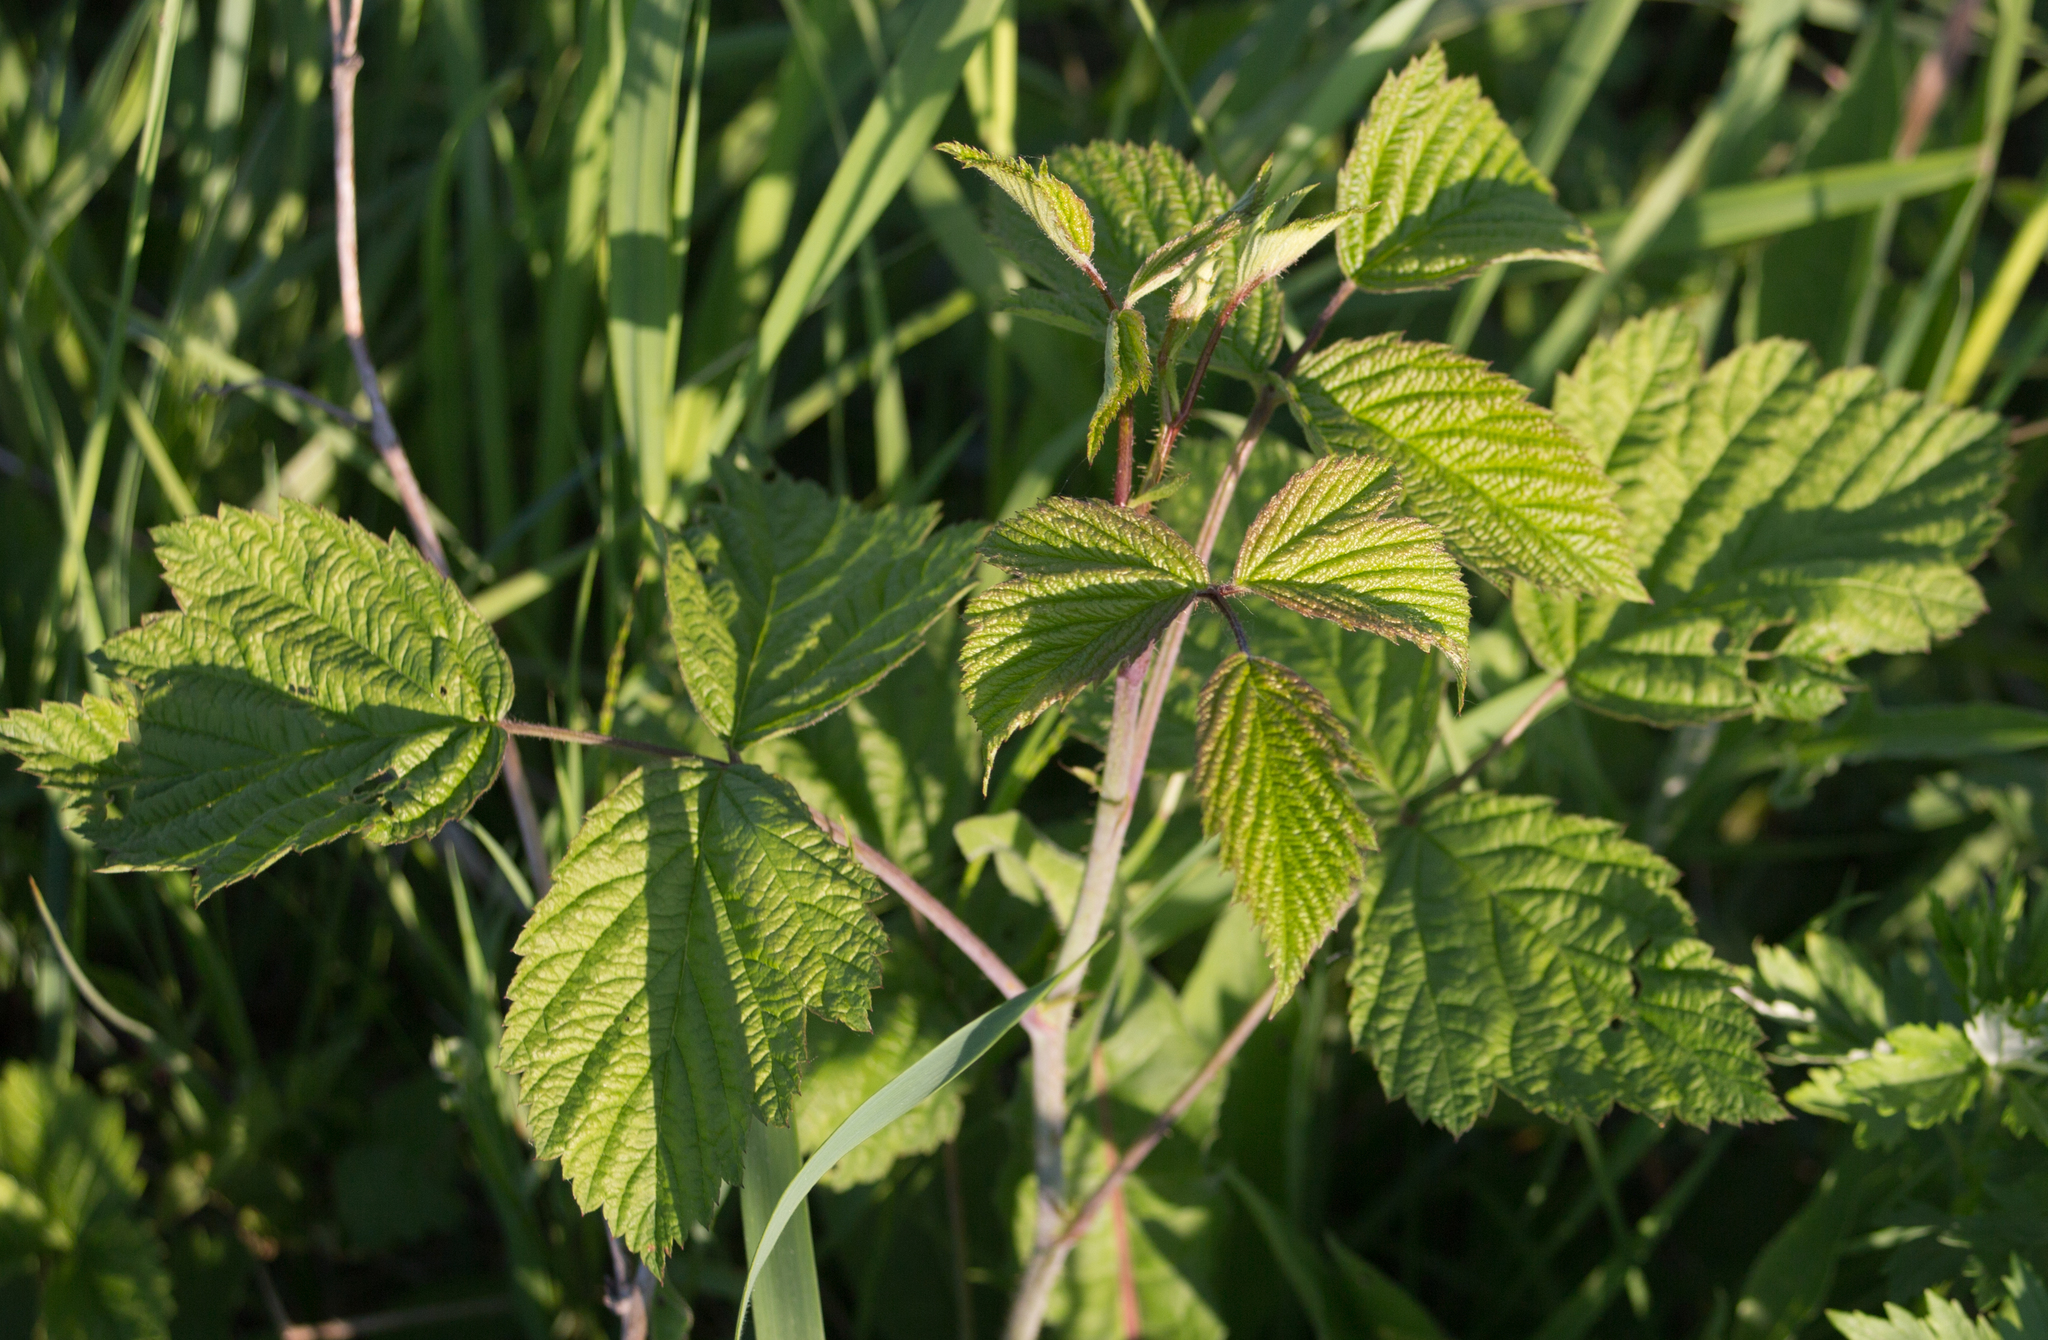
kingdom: Plantae
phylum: Tracheophyta
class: Magnoliopsida
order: Rosales
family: Rosaceae
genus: Rubus
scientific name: Rubus caesius
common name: Dewberry
